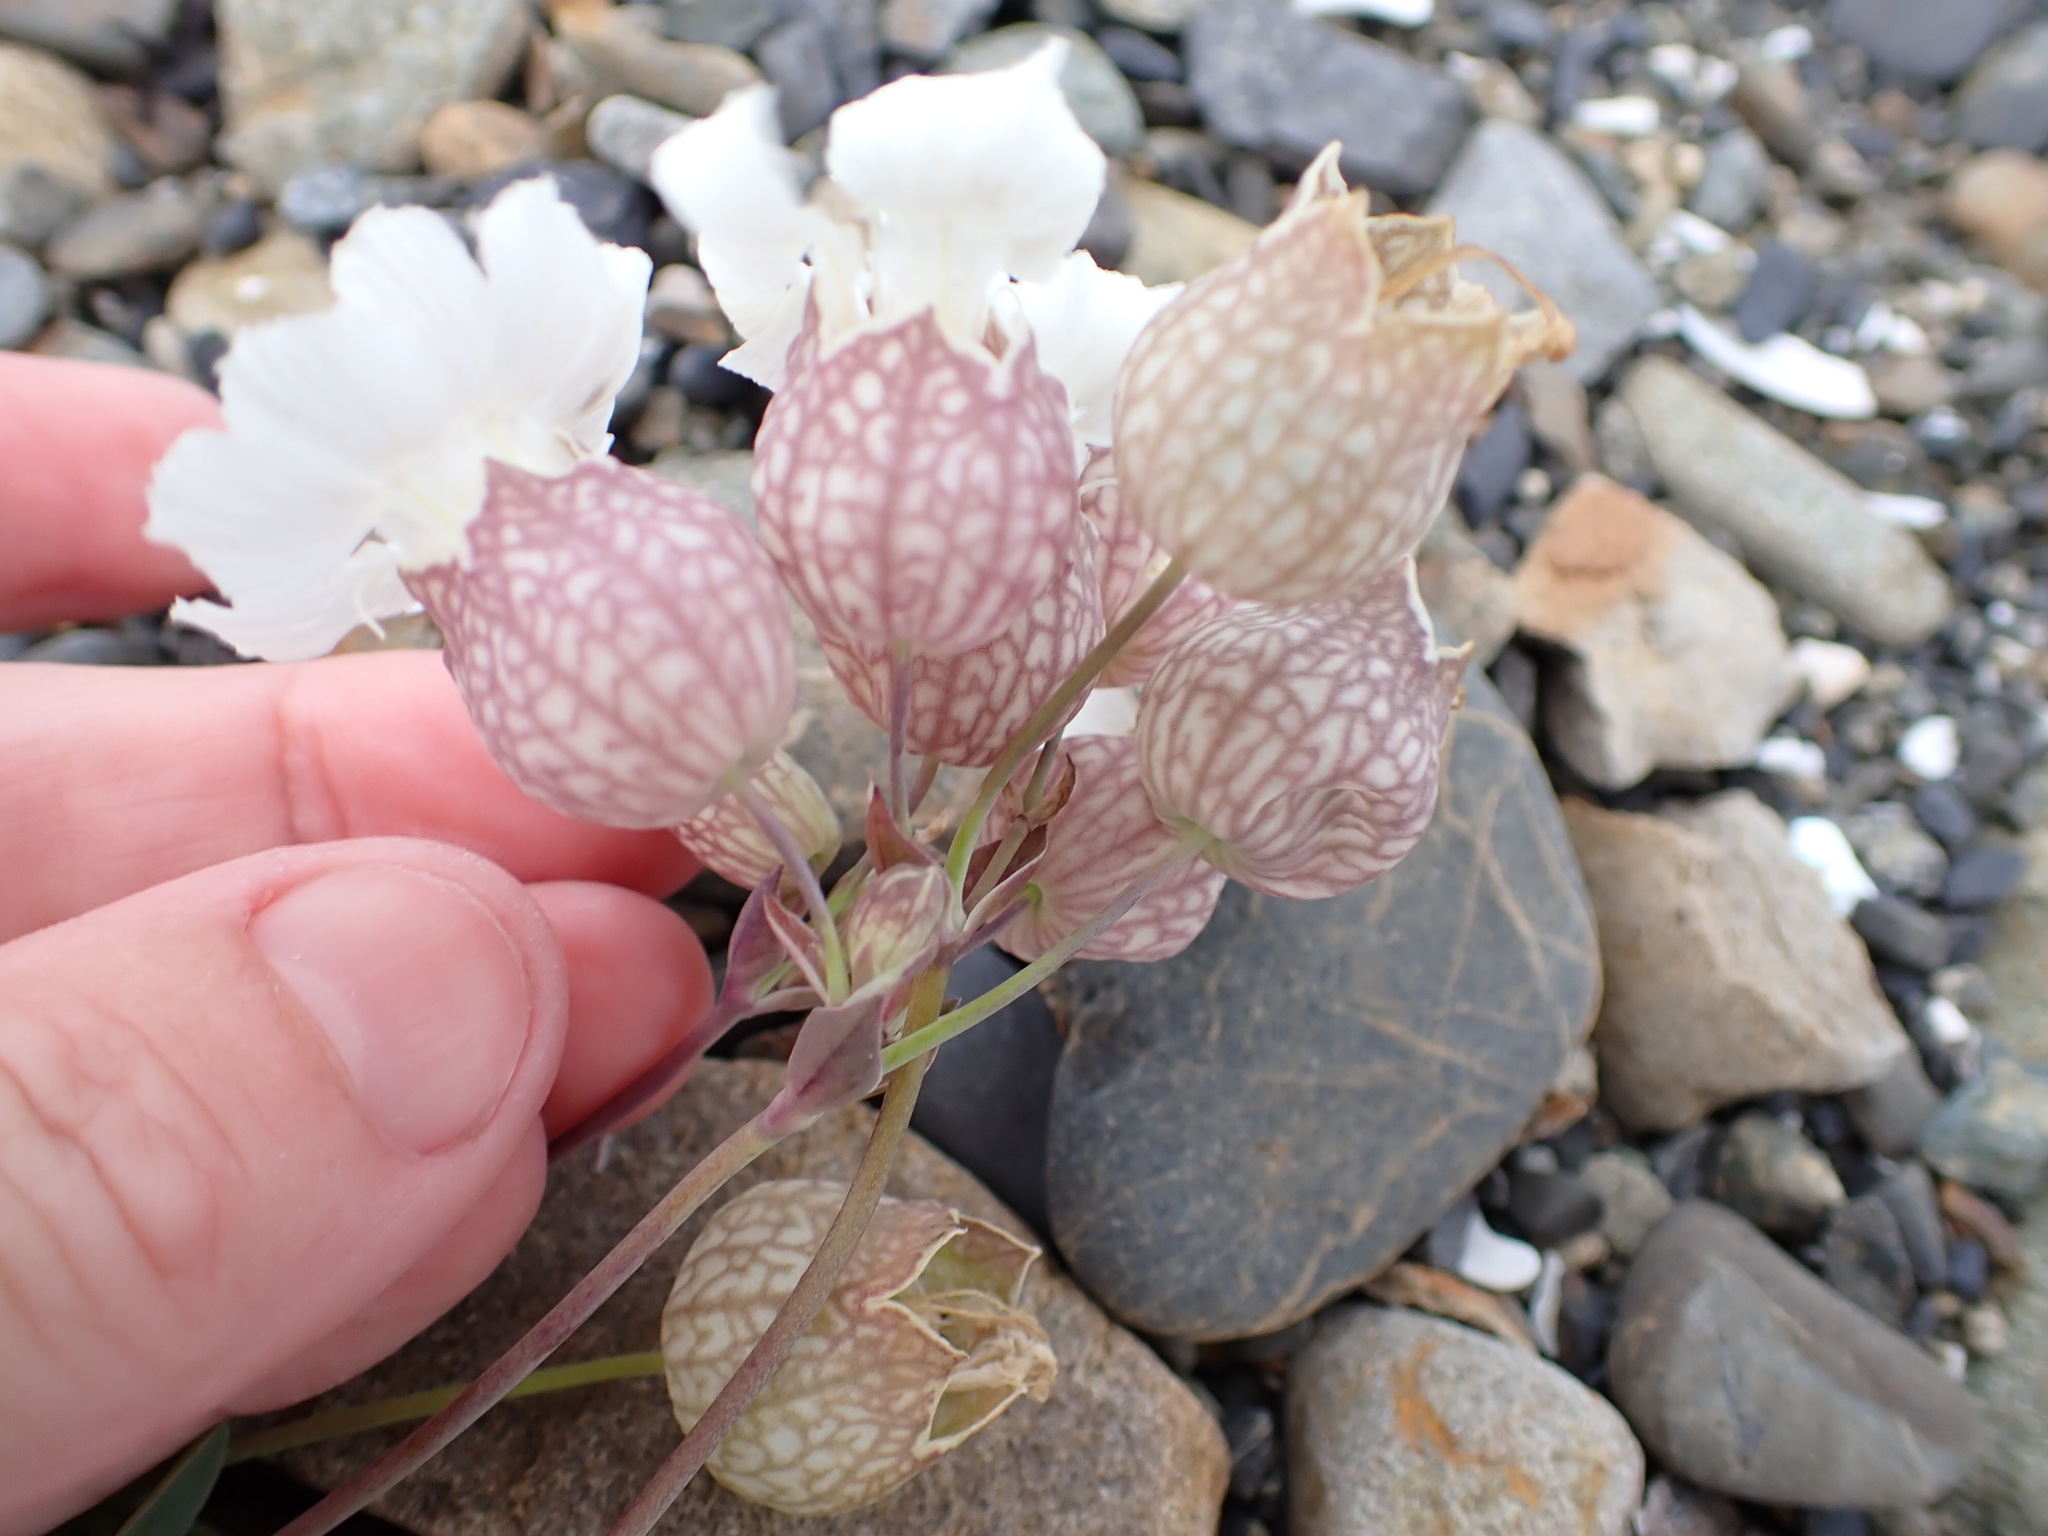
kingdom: Plantae
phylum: Tracheophyta
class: Magnoliopsida
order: Caryophyllales
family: Caryophyllaceae
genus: Silene
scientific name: Silene uniflora
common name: Sea campion
